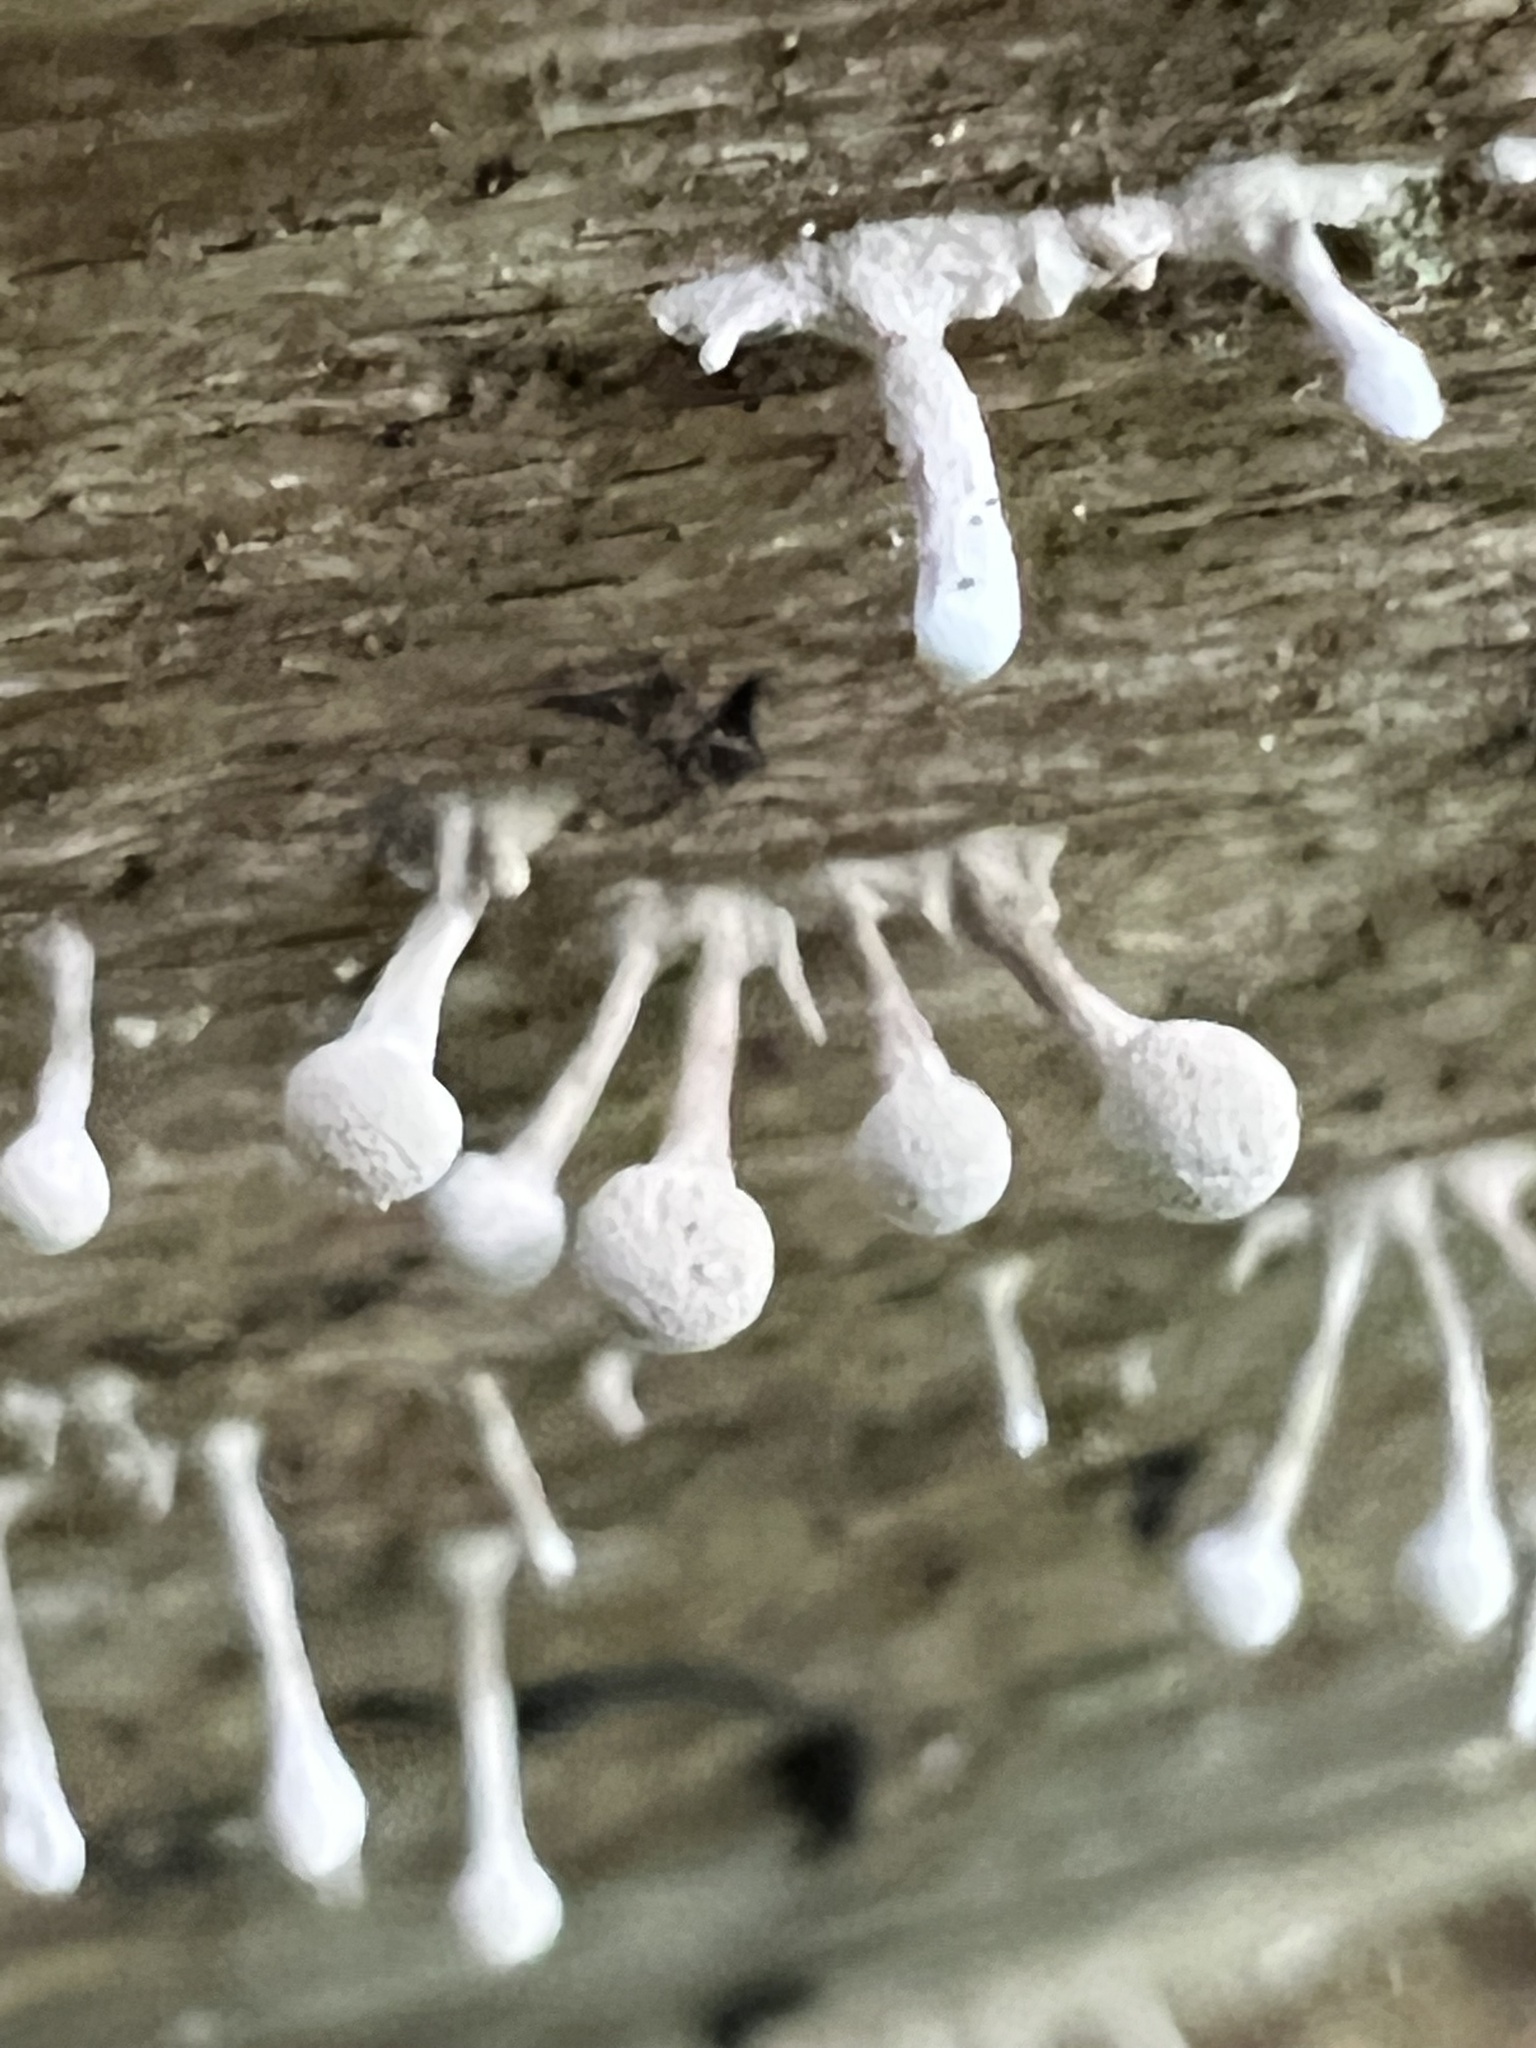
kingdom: Fungi
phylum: Basidiomycota
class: Atractiellomycetes
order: Atractiellales
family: Phleogenaceae
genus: Phleogena
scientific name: Phleogena faginea
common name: Fenugreek stalkball
